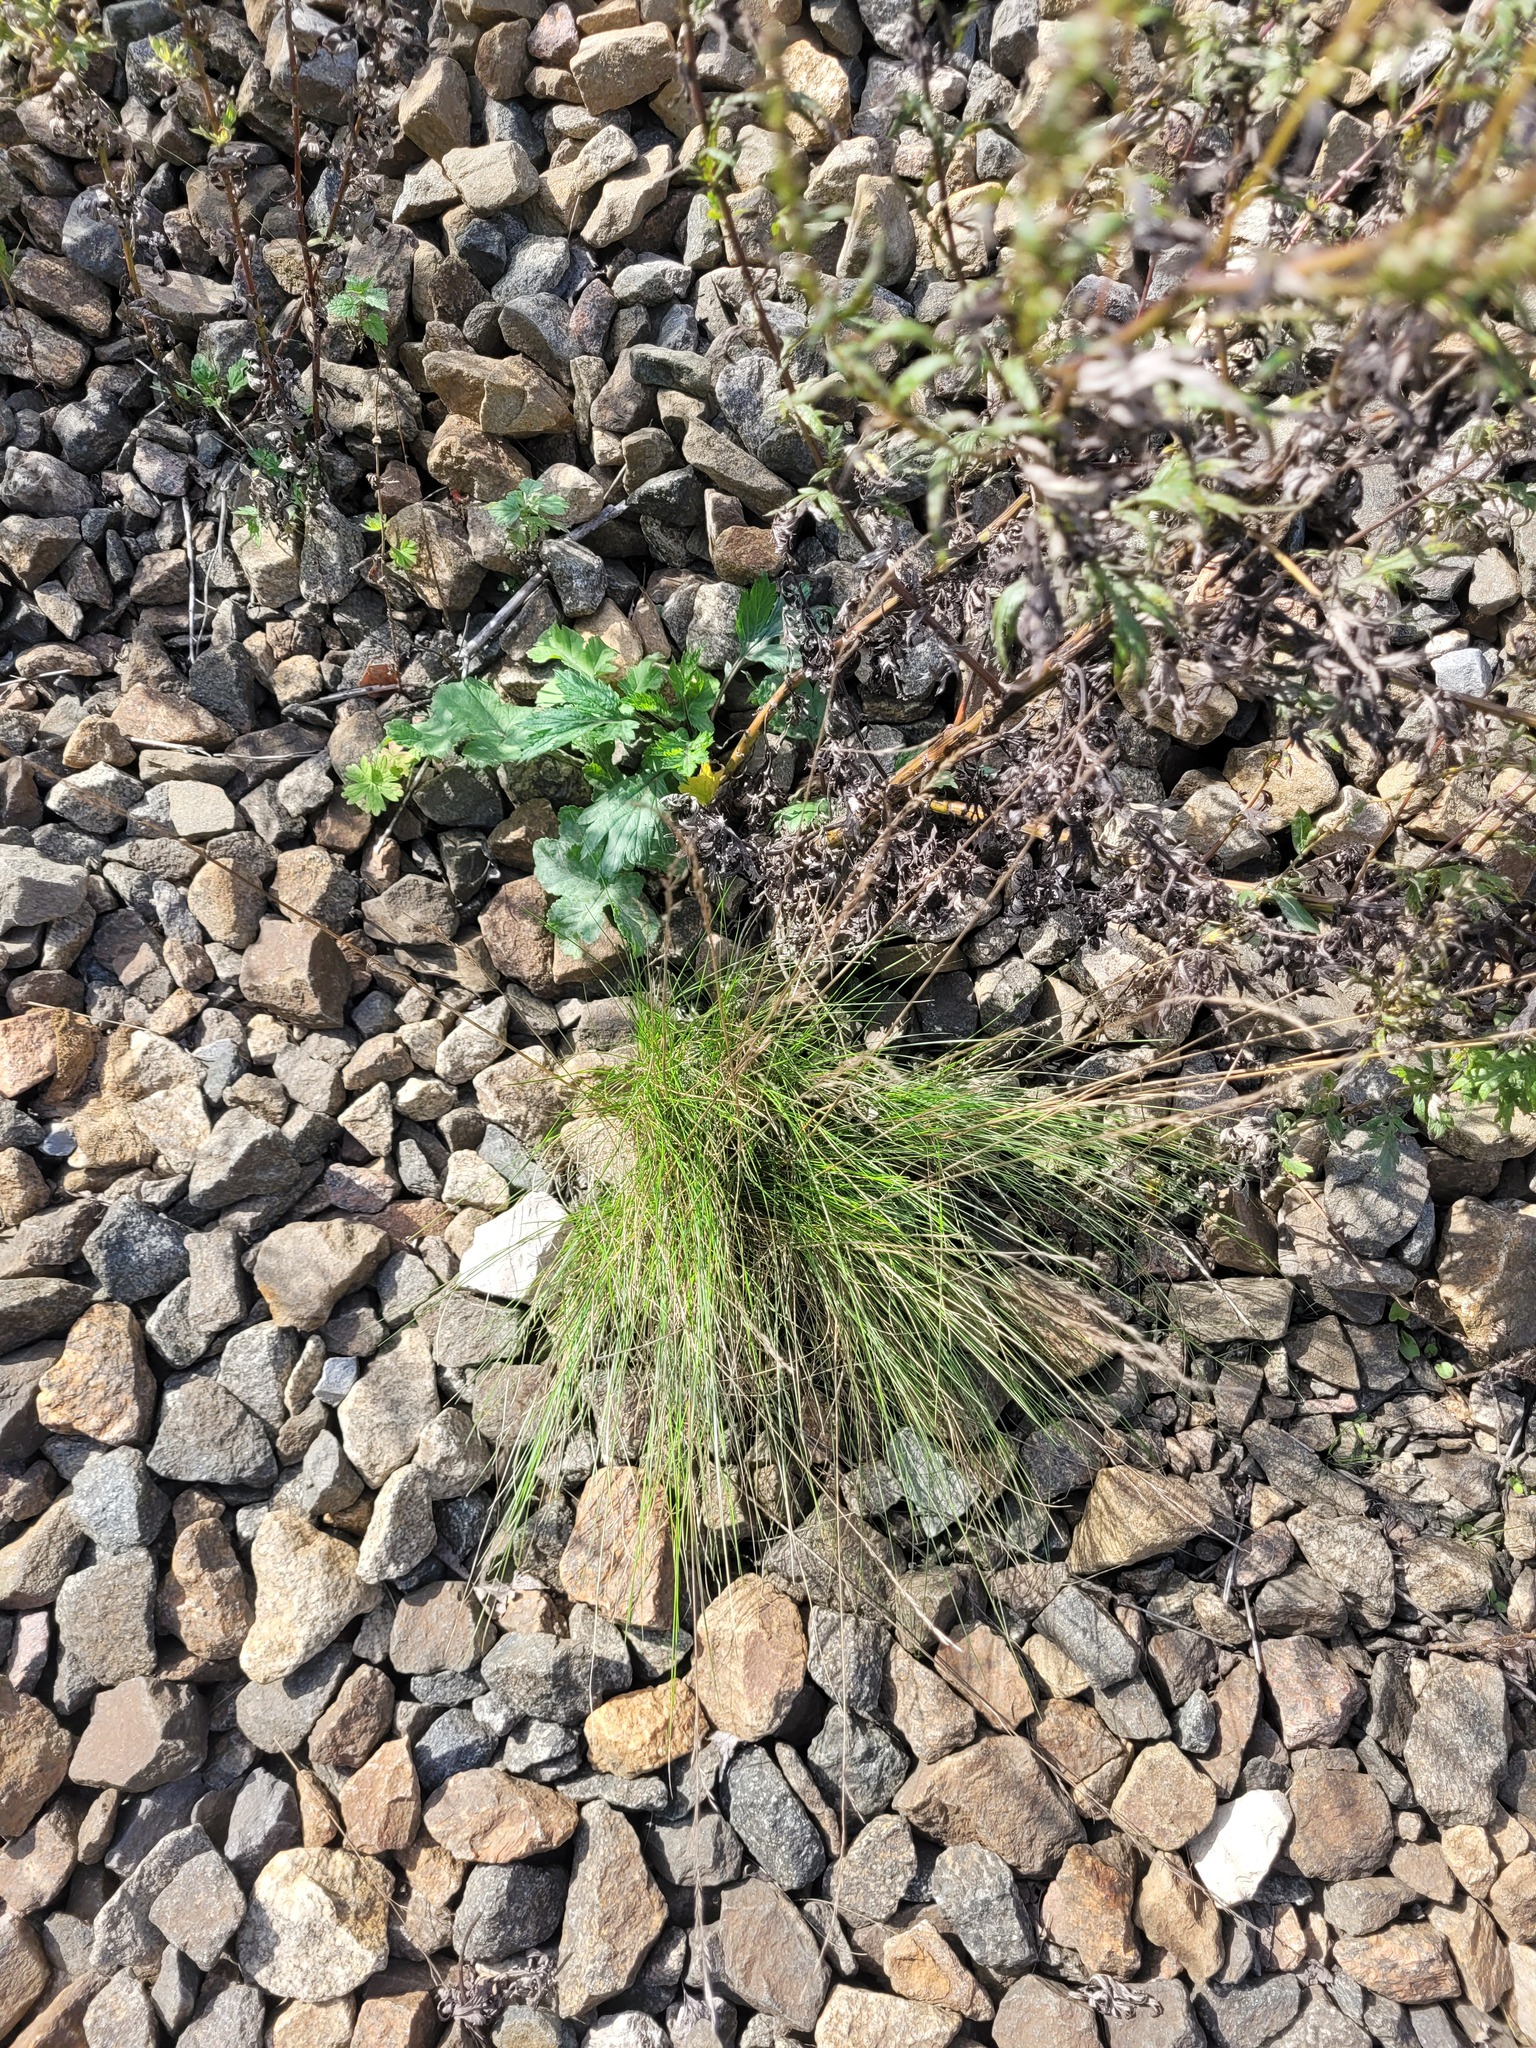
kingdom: Plantae
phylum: Tracheophyta
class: Liliopsida
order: Poales
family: Poaceae
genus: Festuca
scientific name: Festuca rubra
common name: Red fescue
